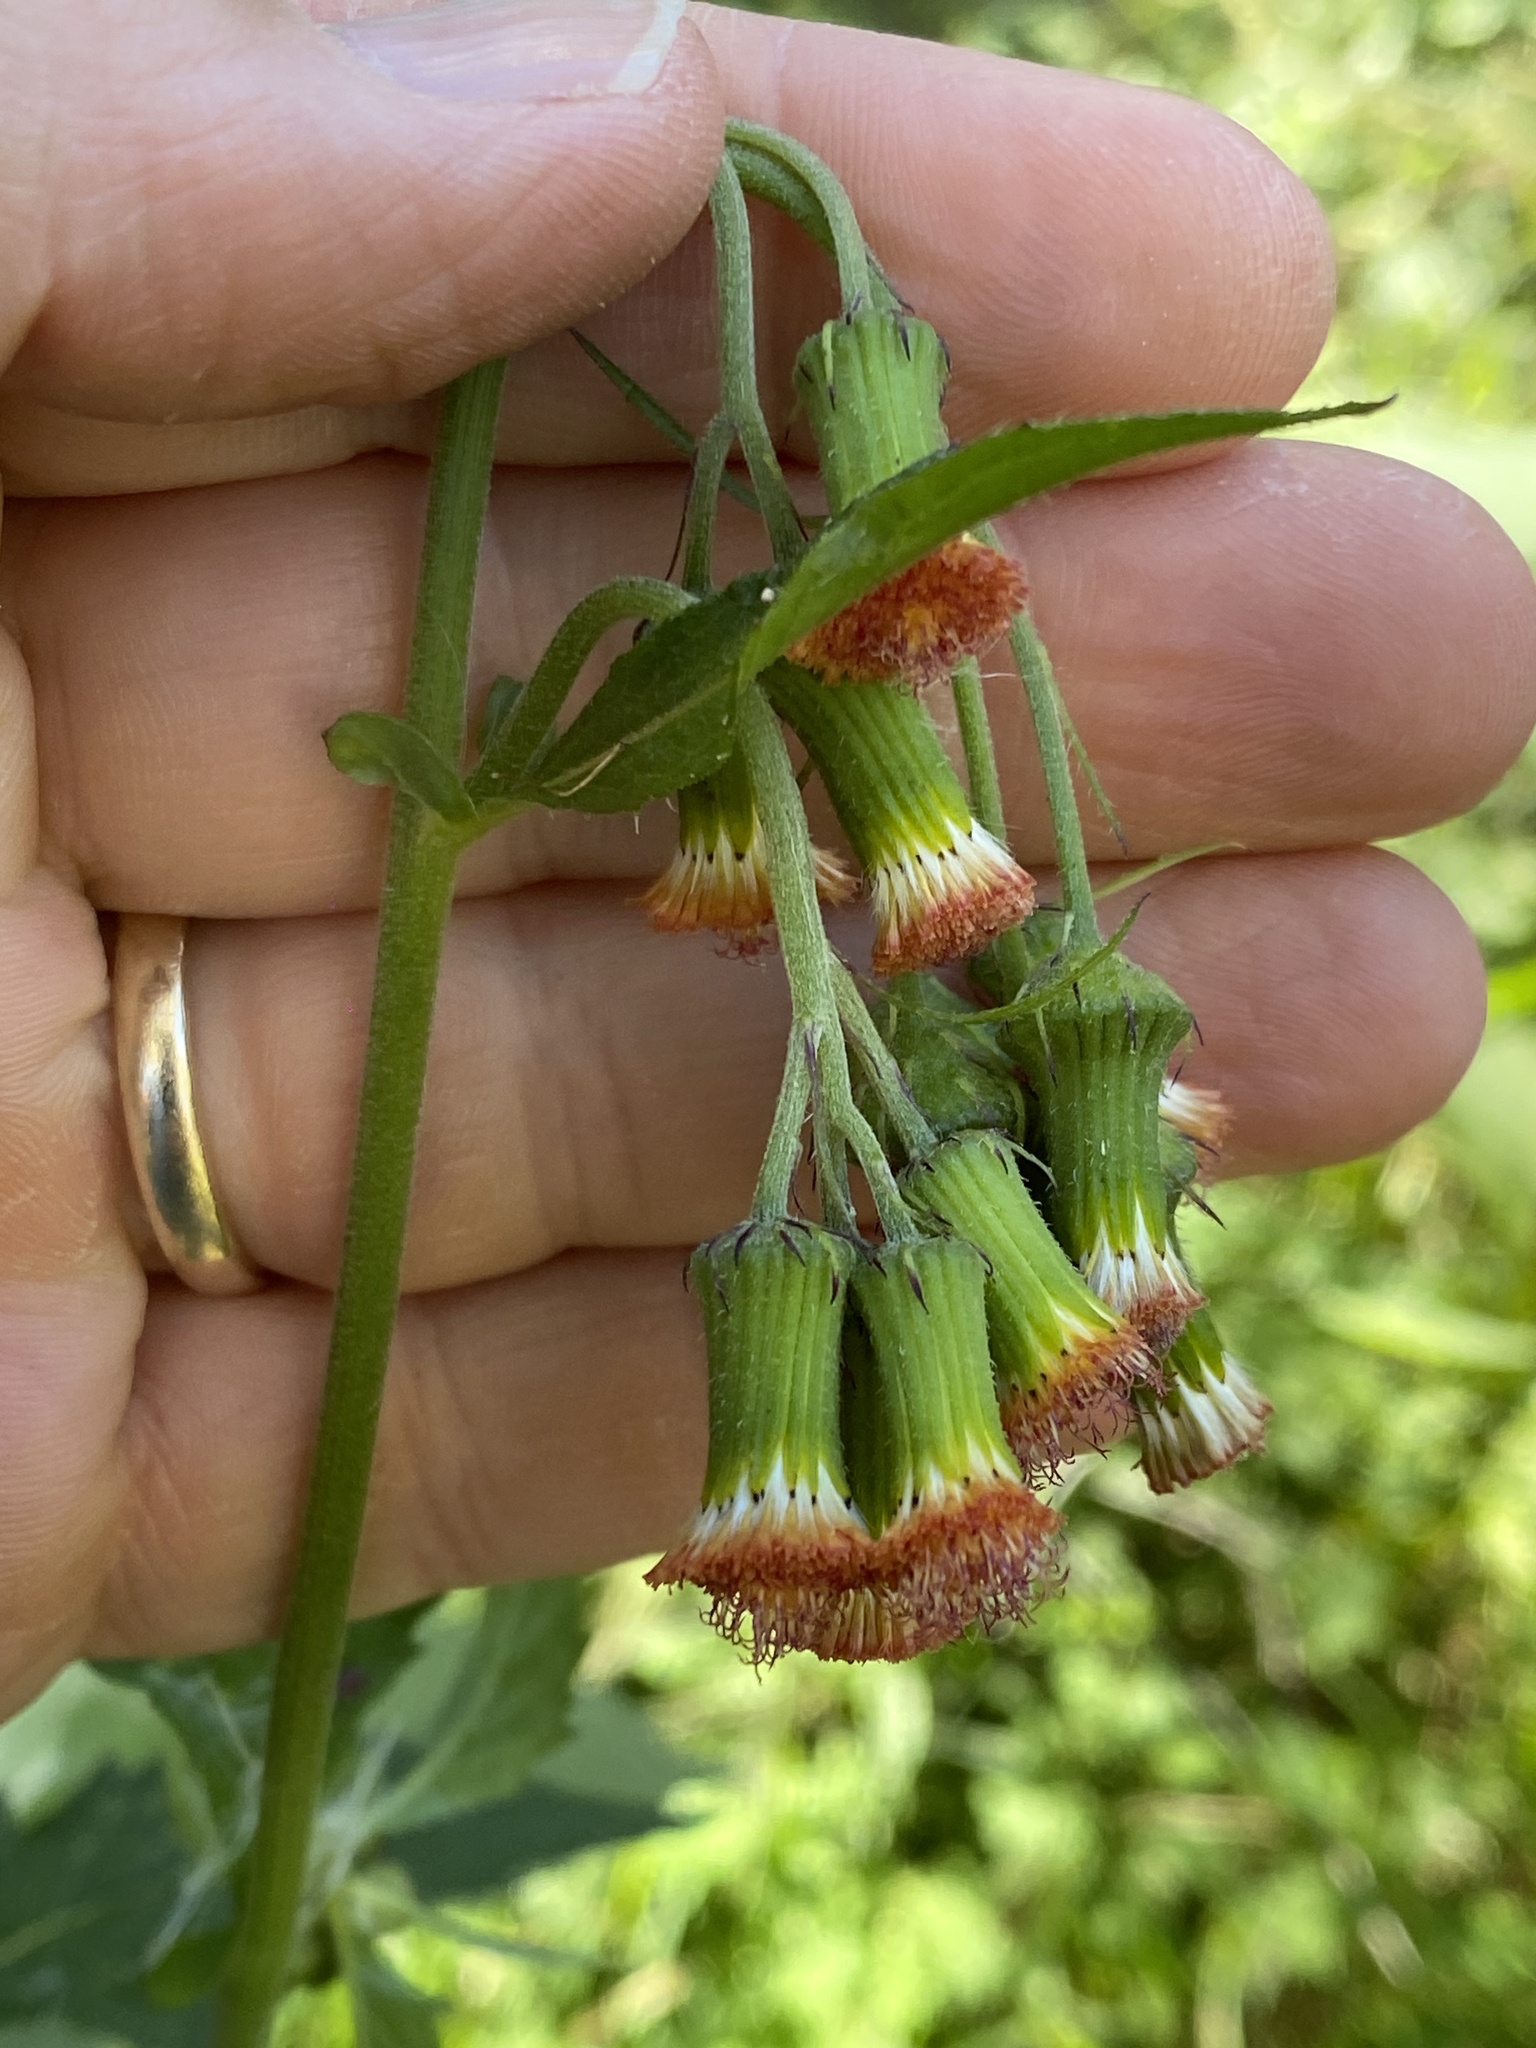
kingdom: Plantae
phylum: Tracheophyta
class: Magnoliopsida
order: Asterales
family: Asteraceae
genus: Crassocephalum
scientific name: Crassocephalum crepidioides
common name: Redflower ragleaf
